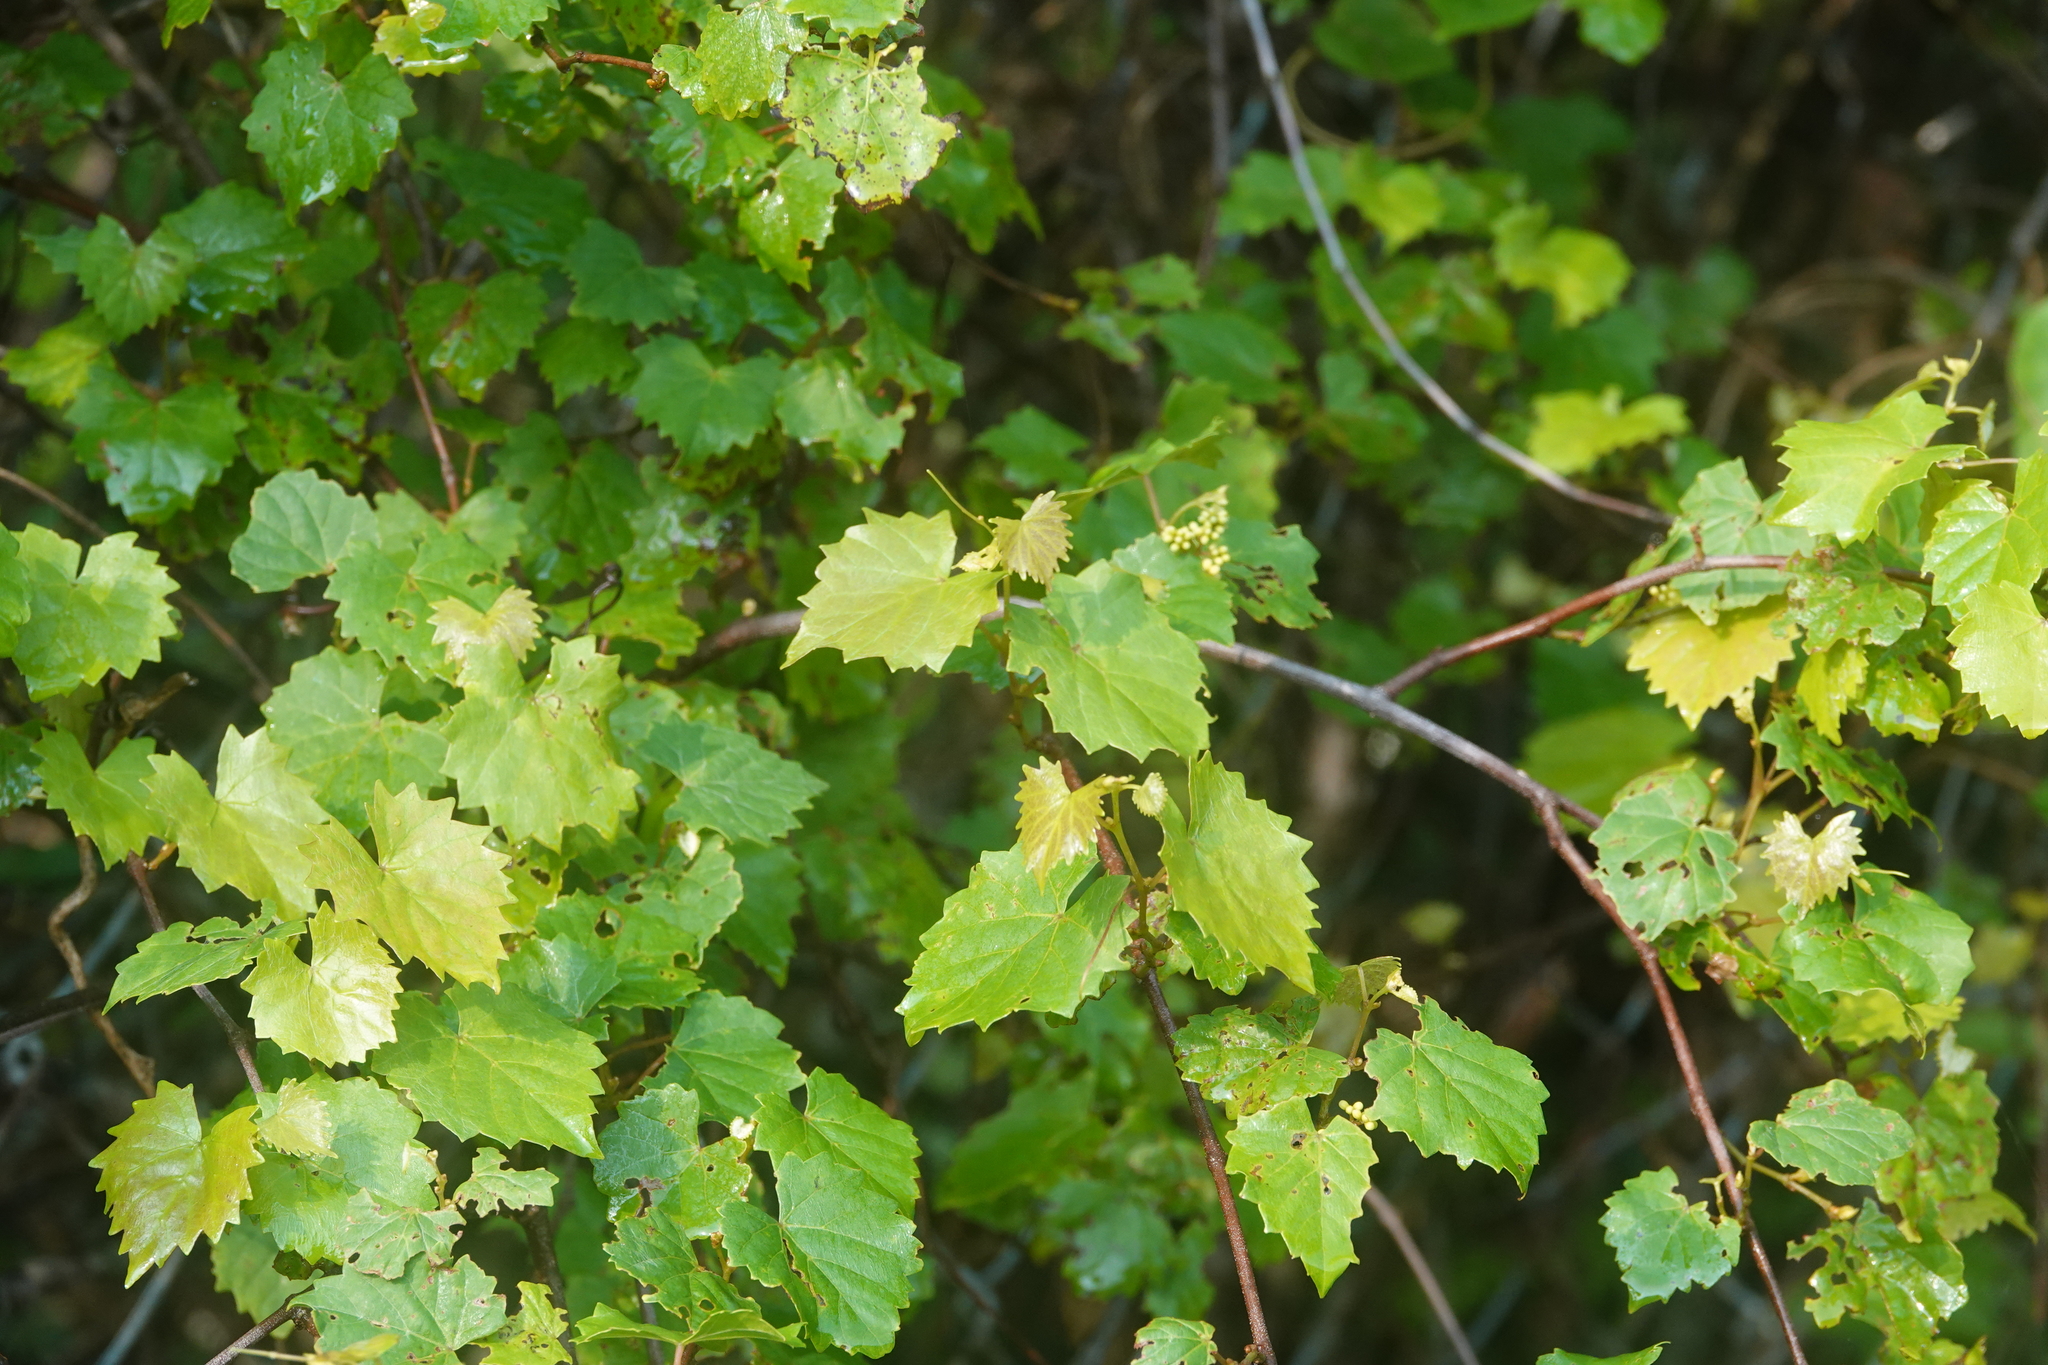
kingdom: Plantae
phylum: Tracheophyta
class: Magnoliopsida
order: Vitales
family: Vitaceae
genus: Vitis
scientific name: Vitis rotundifolia
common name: Muscadine grape
